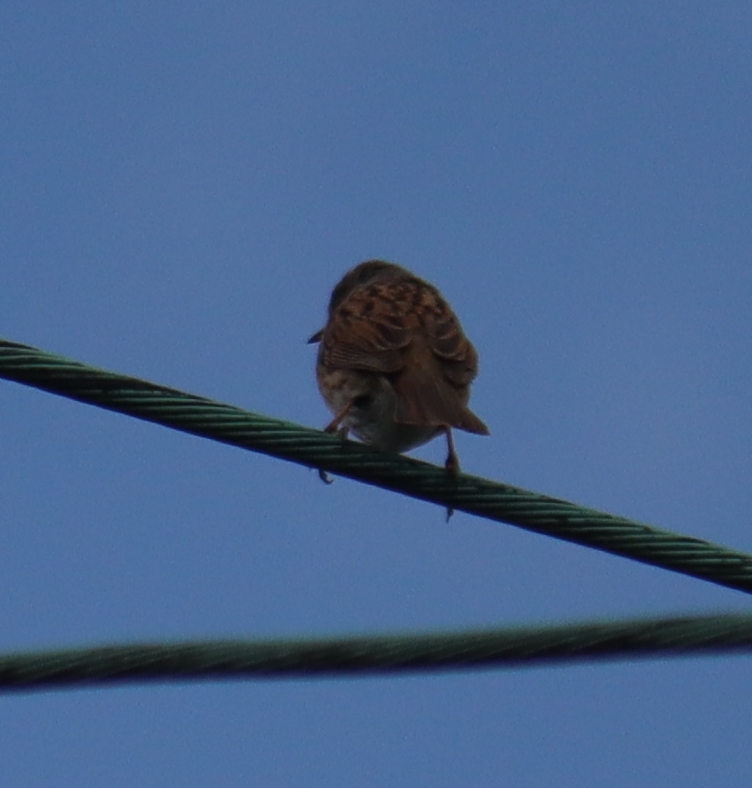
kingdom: Animalia
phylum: Chordata
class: Aves
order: Passeriformes
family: Prunellidae
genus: Prunella
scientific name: Prunella modularis
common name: Dunnock
